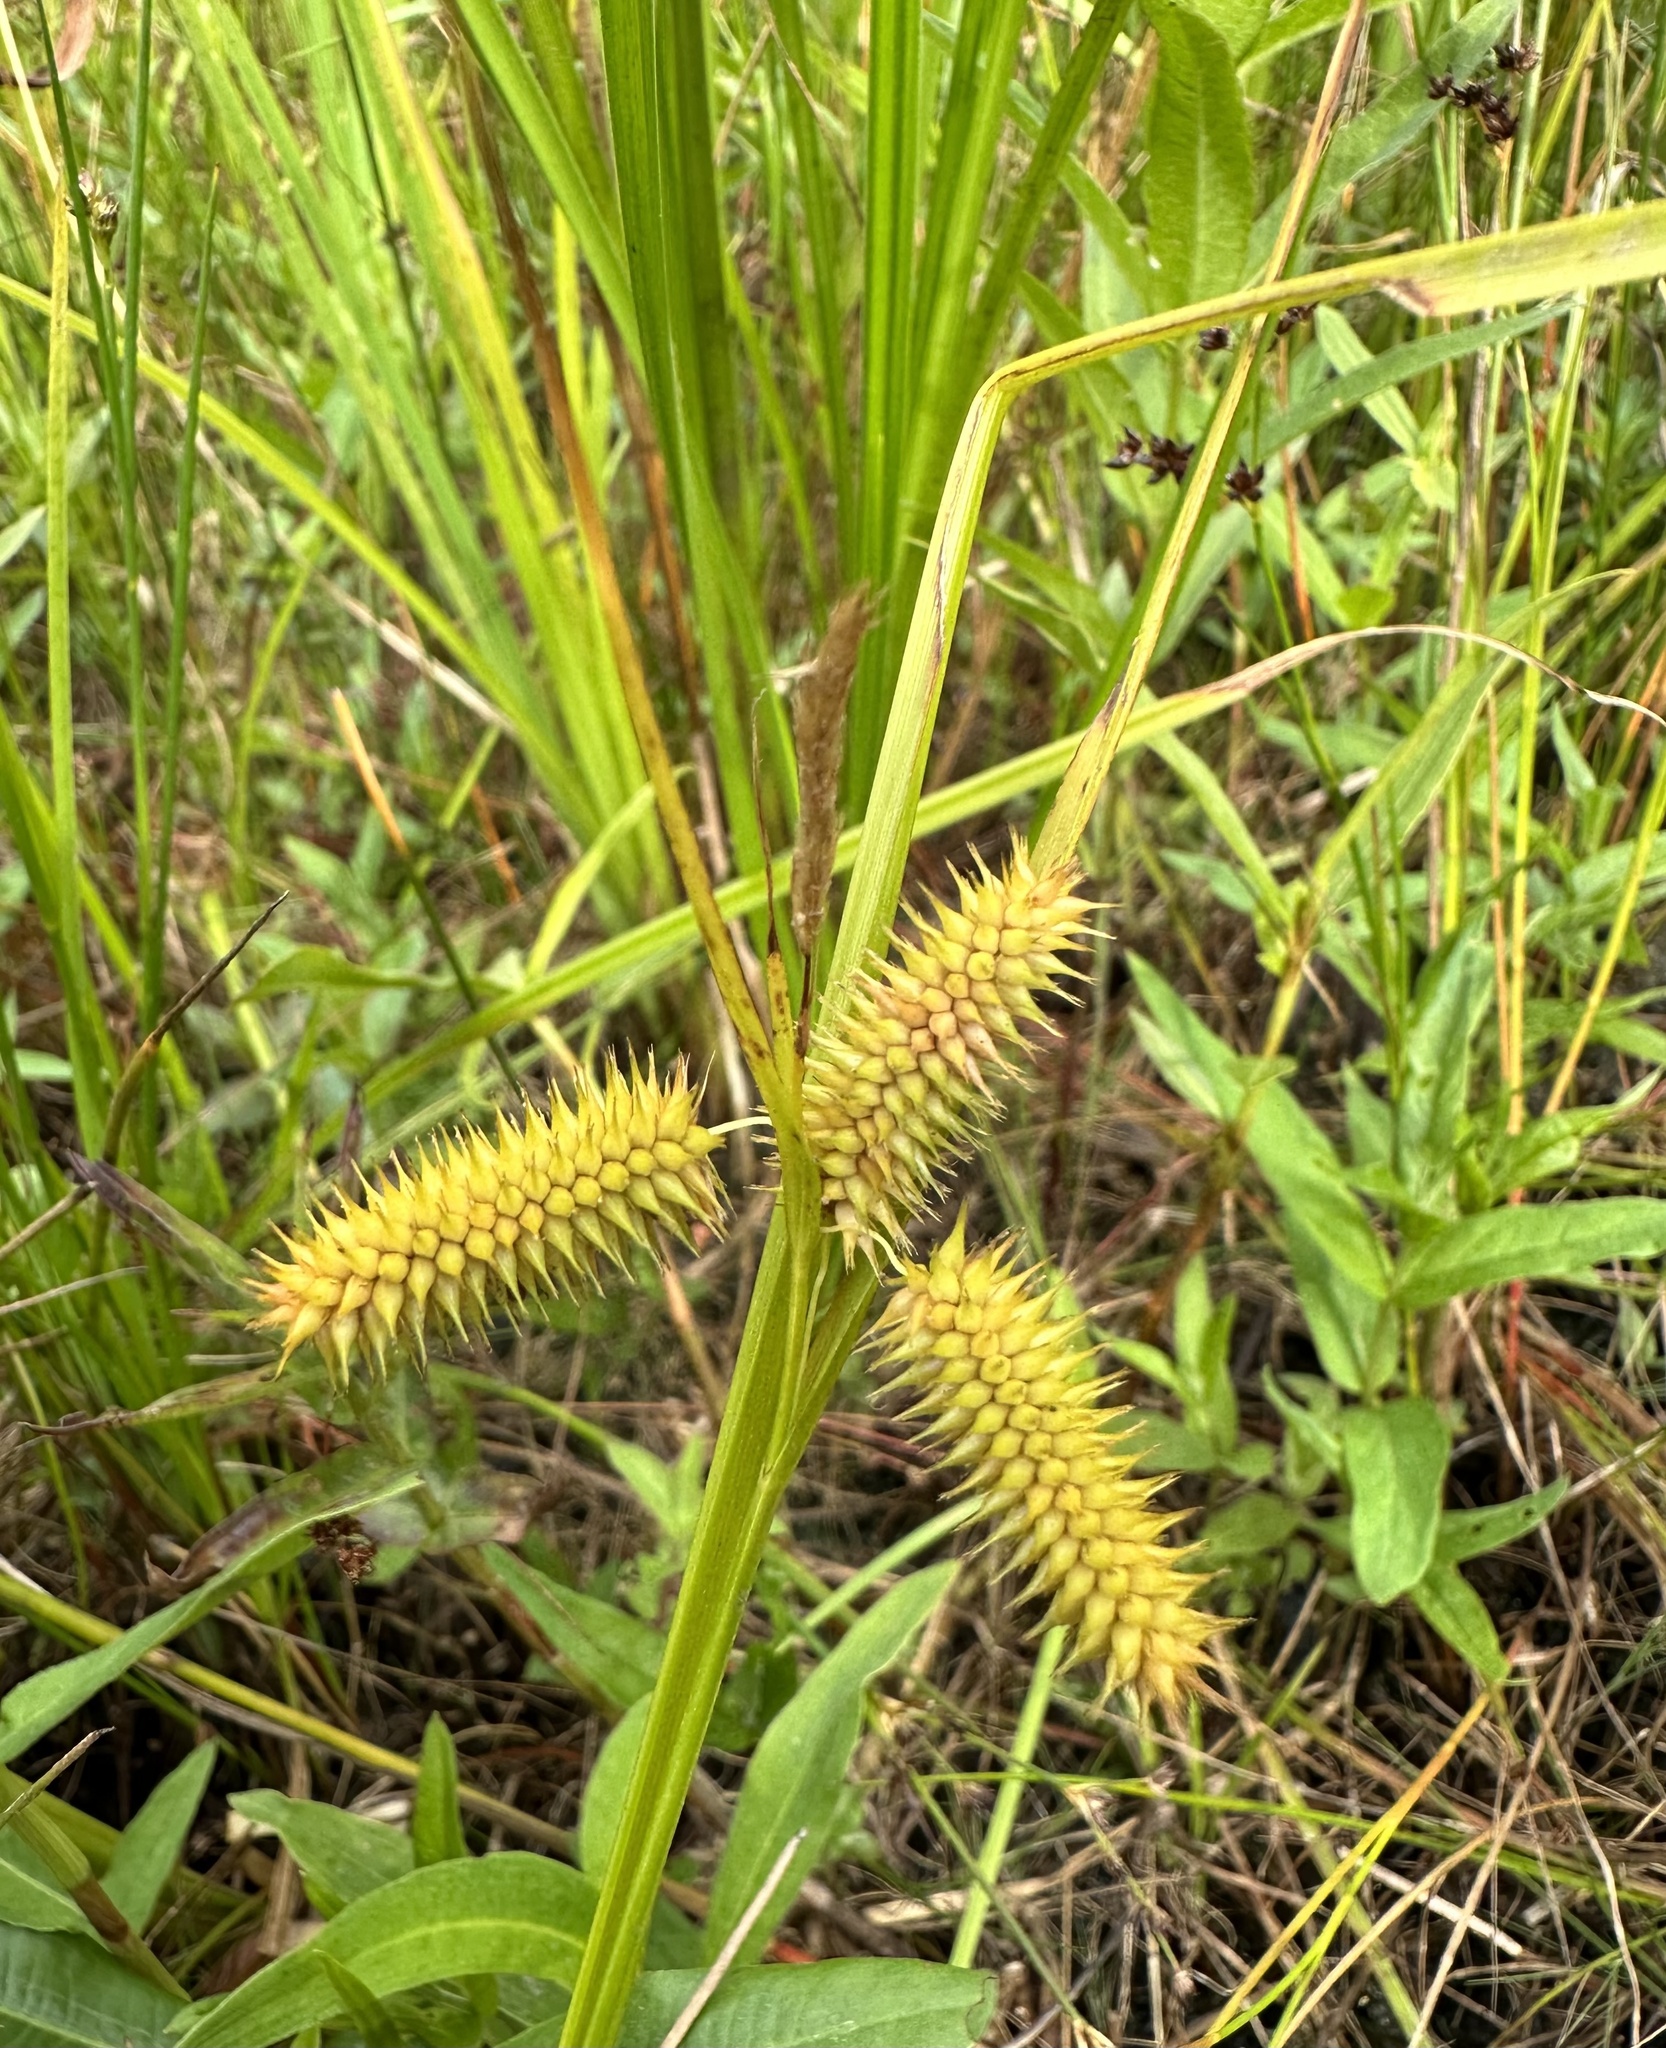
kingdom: Plantae
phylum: Tracheophyta
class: Liliopsida
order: Poales
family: Cyperaceae
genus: Carex
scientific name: Carex vesicaria
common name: Bladder-sedge
